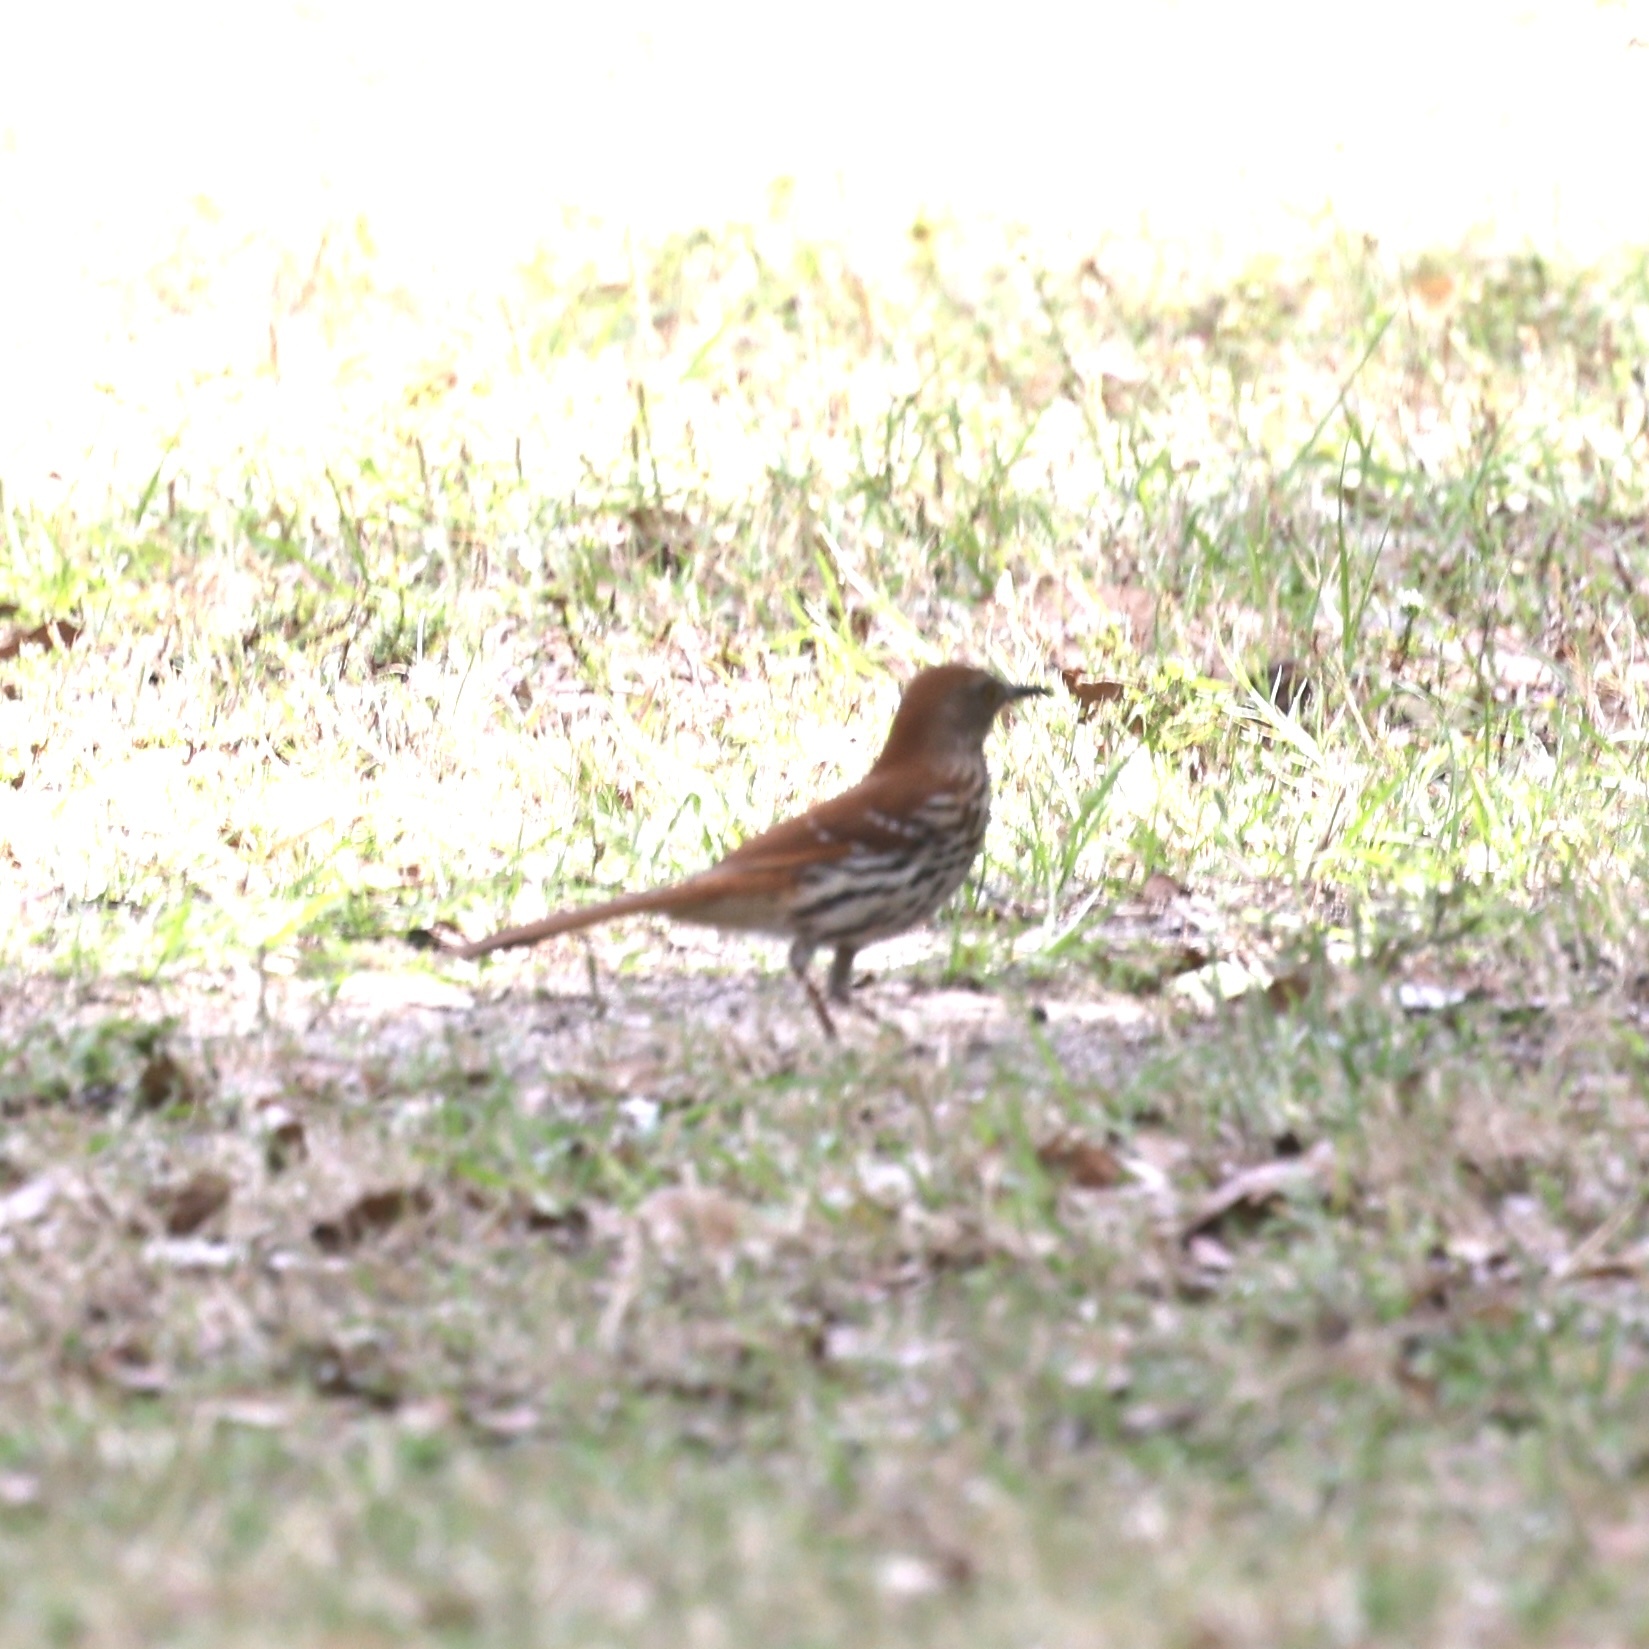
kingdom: Animalia
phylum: Chordata
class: Aves
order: Passeriformes
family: Mimidae
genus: Toxostoma
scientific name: Toxostoma rufum
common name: Brown thrasher
